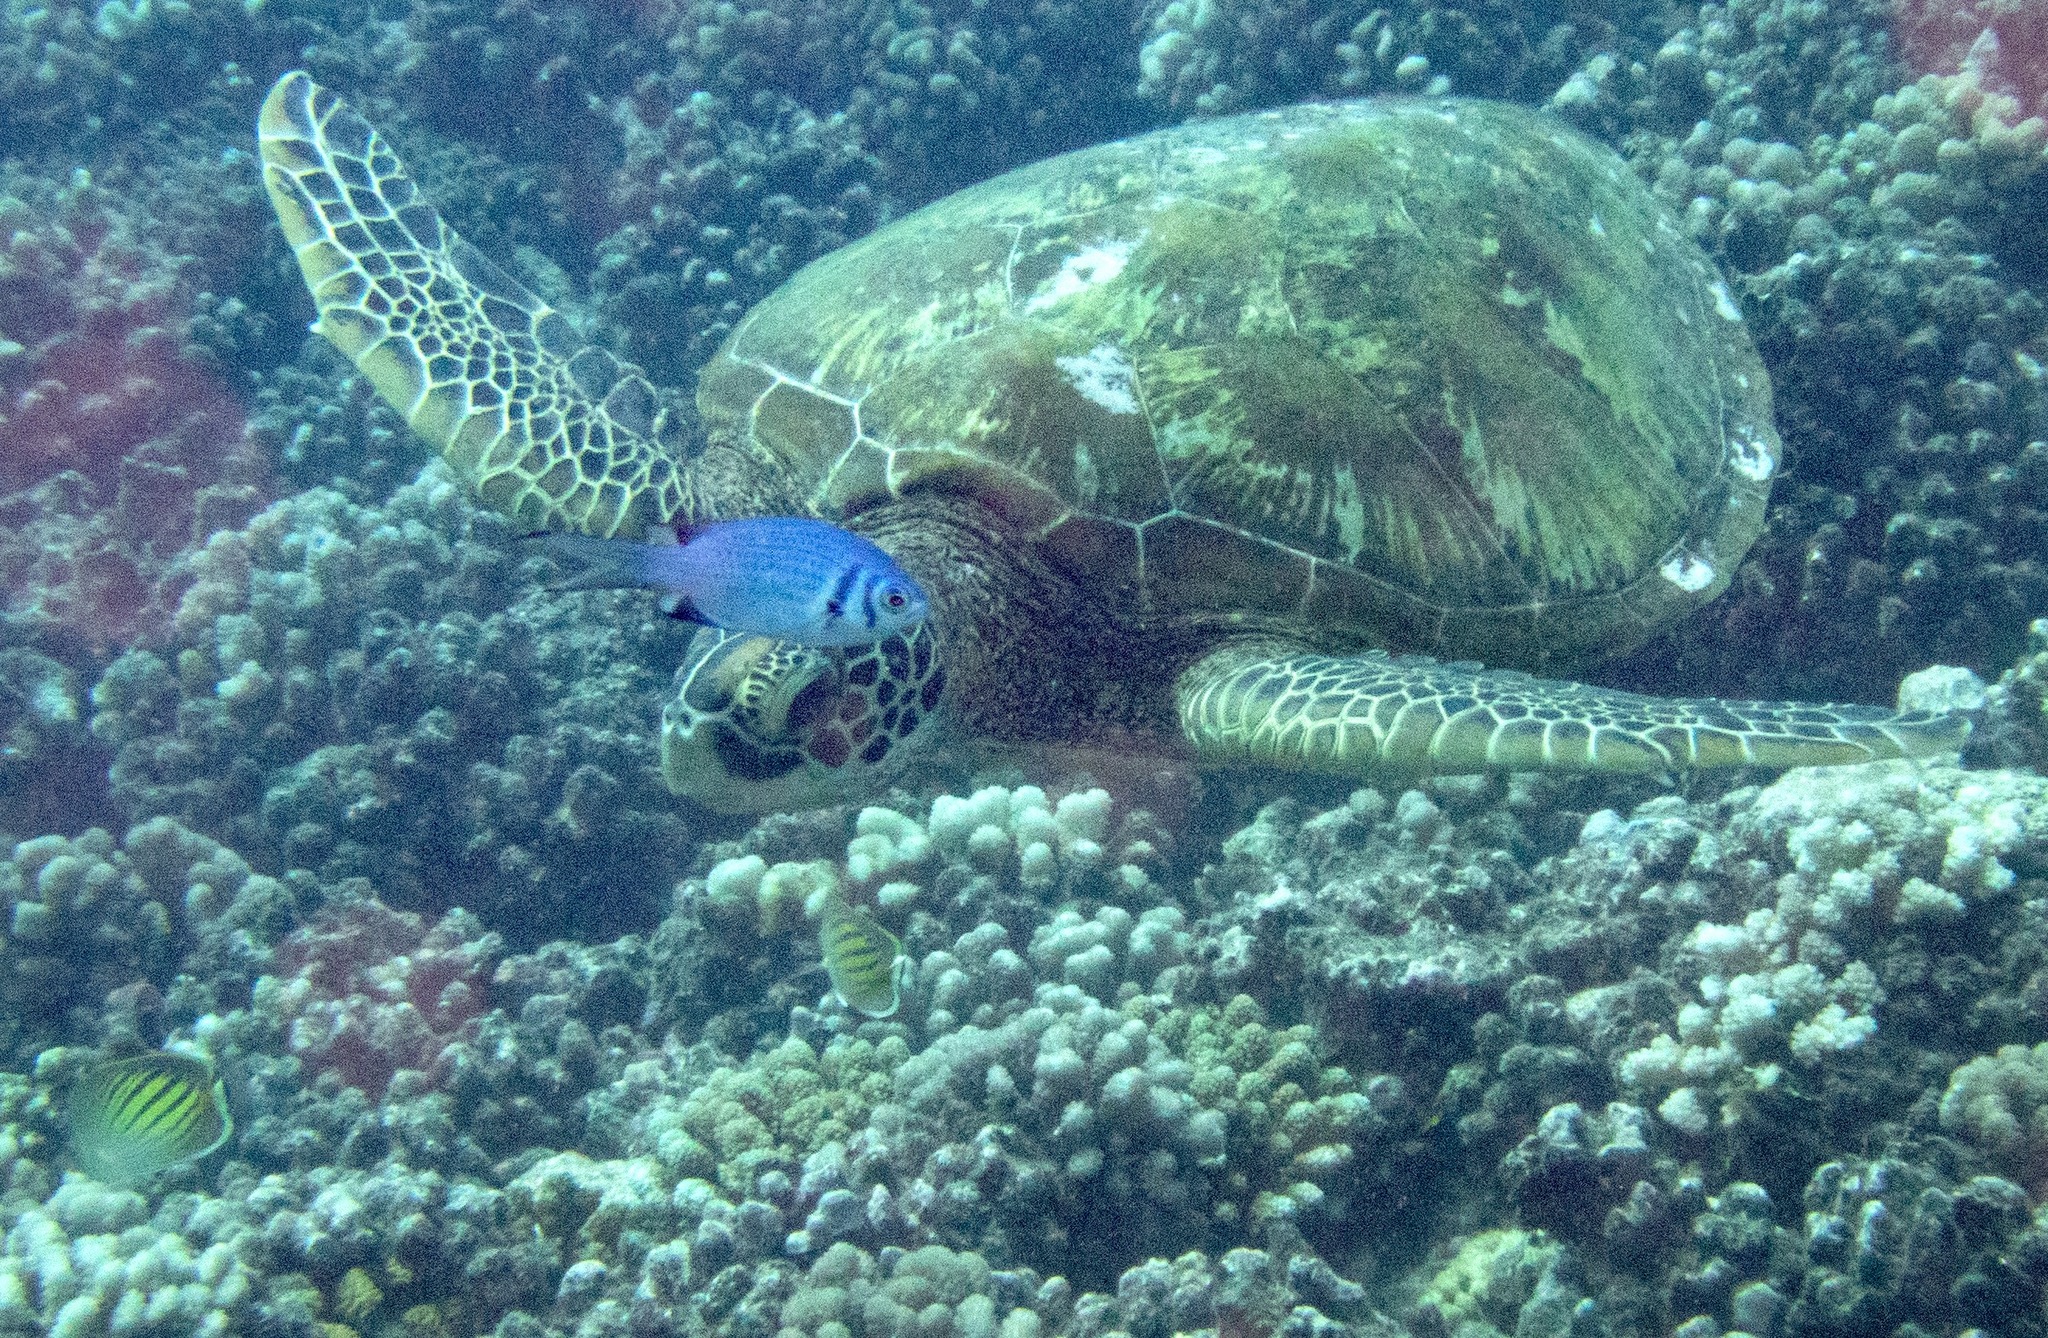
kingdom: Animalia
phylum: Chordata
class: Testudines
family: Cheloniidae
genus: Chelonia
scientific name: Chelonia mydas
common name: Green turtle
